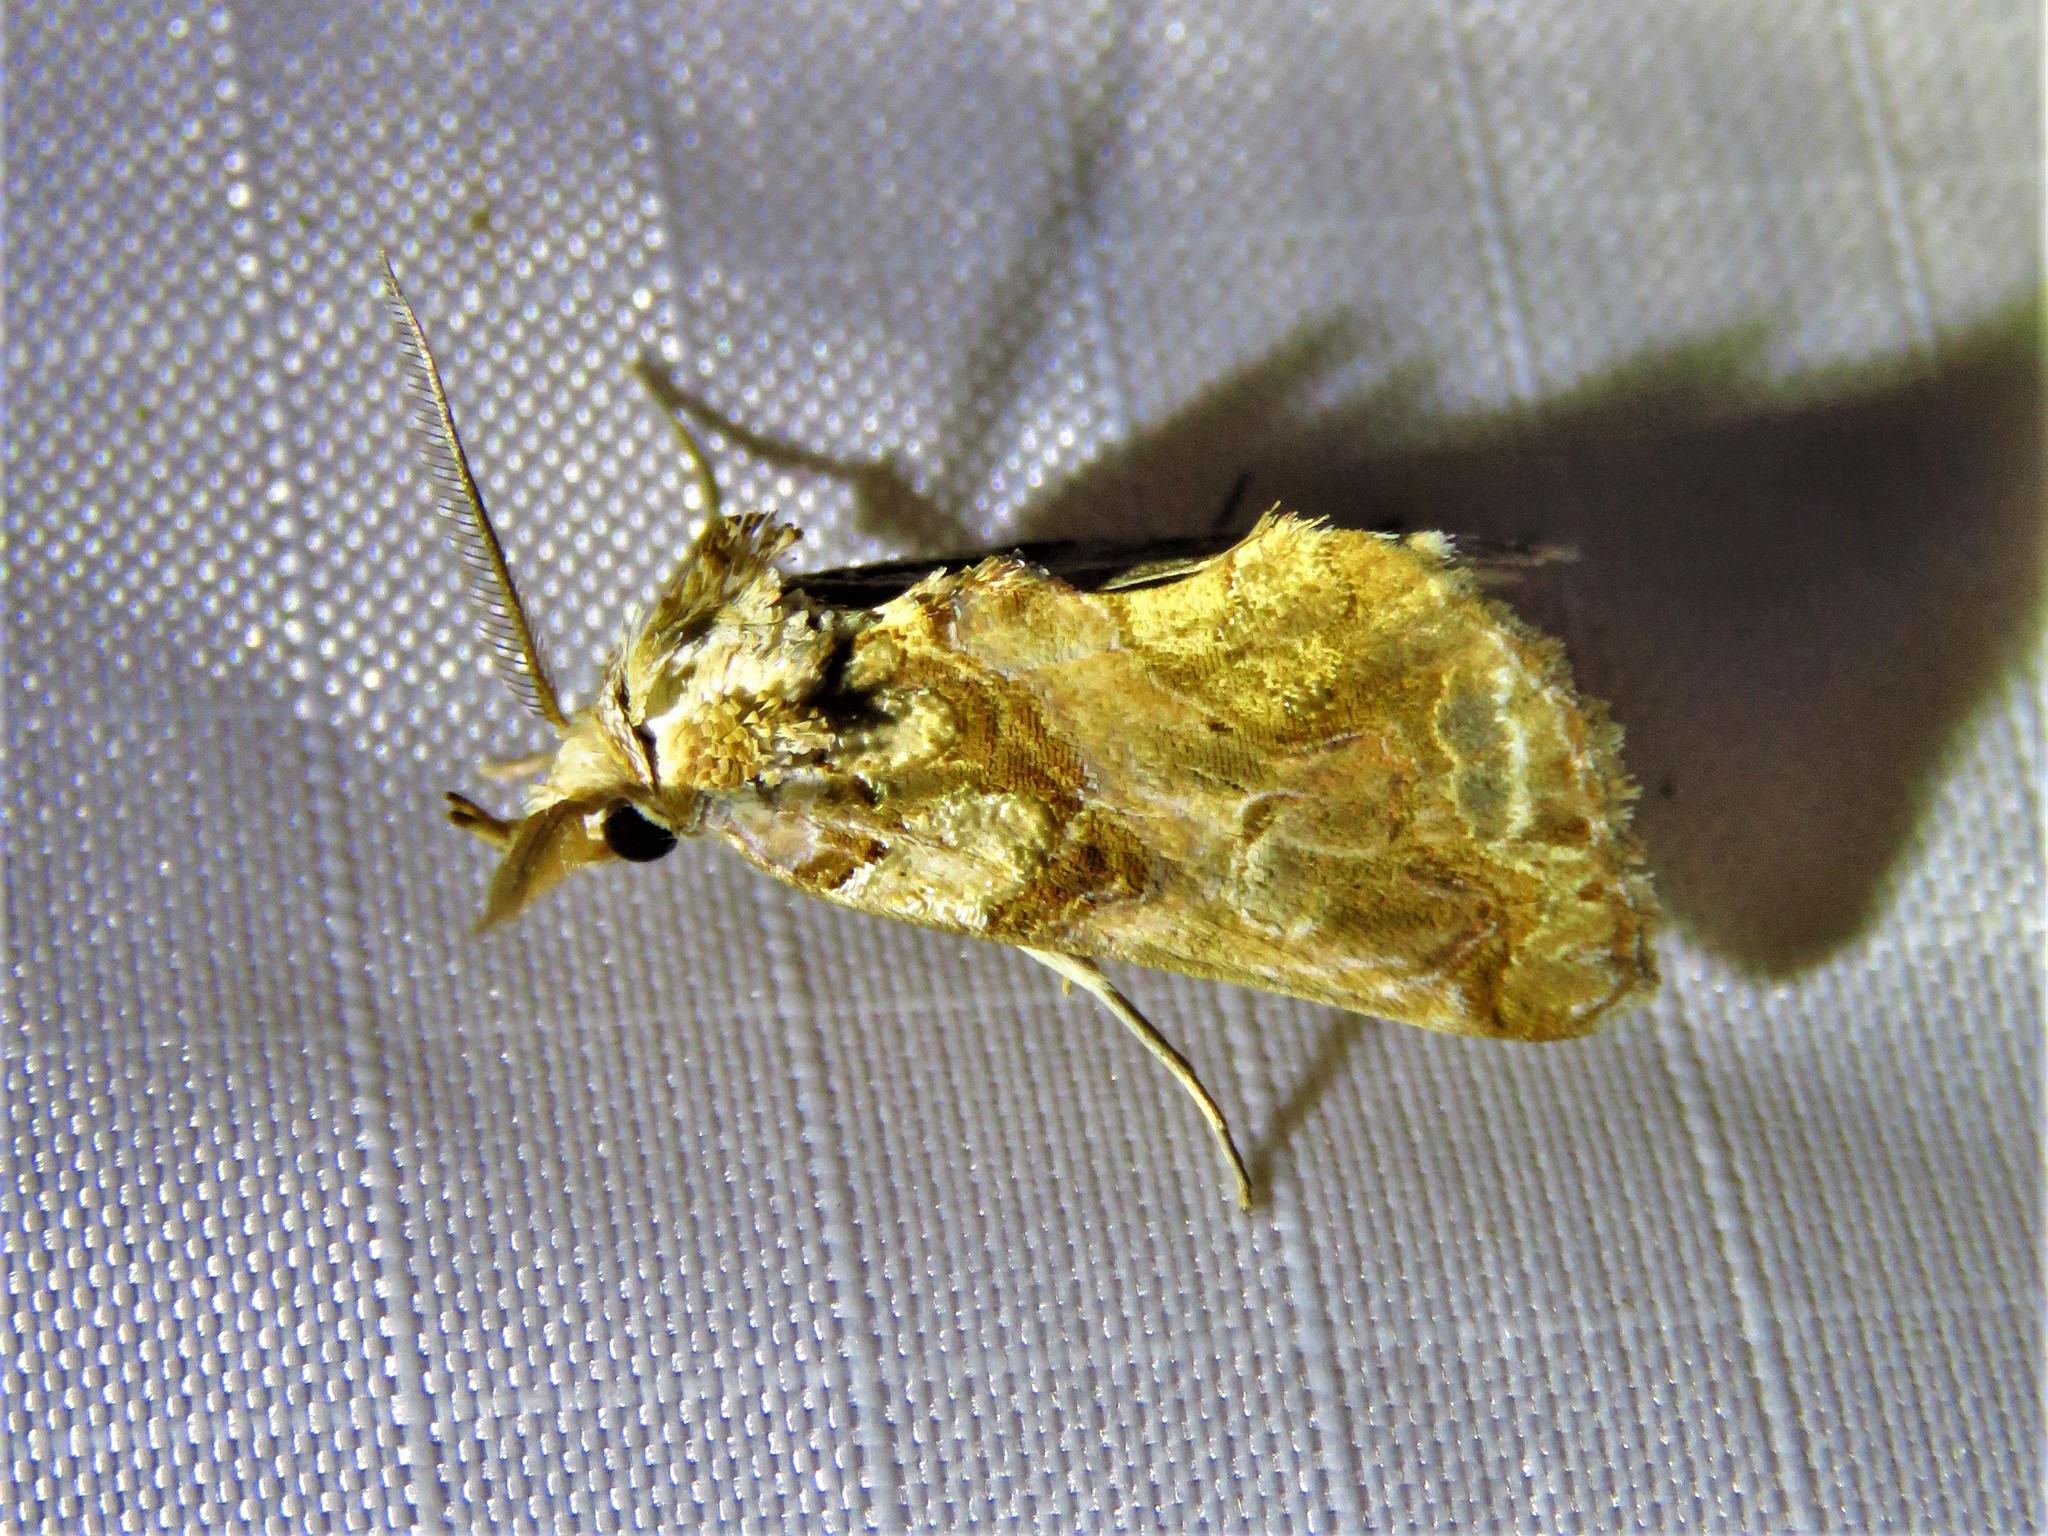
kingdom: Animalia
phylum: Arthropoda
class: Insecta
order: Lepidoptera
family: Erebidae
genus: Plusiodonta
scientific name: Plusiodonta compressipalpis
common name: Moonseed moth
